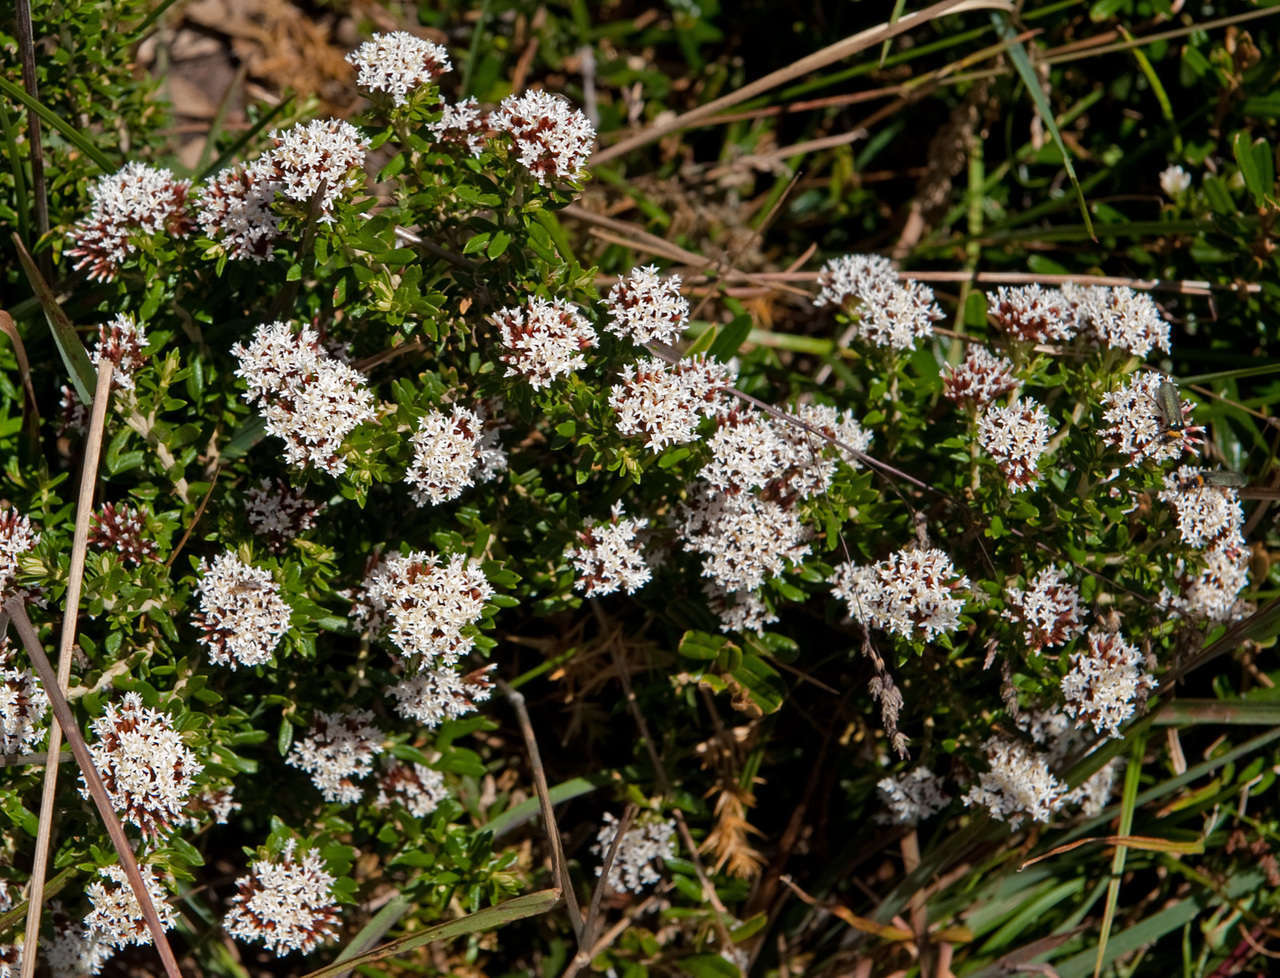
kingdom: Plantae
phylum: Tracheophyta
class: Magnoliopsida
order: Asterales
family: Asteraceae
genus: Ozothamnus
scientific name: Ozothamnus alpinus
